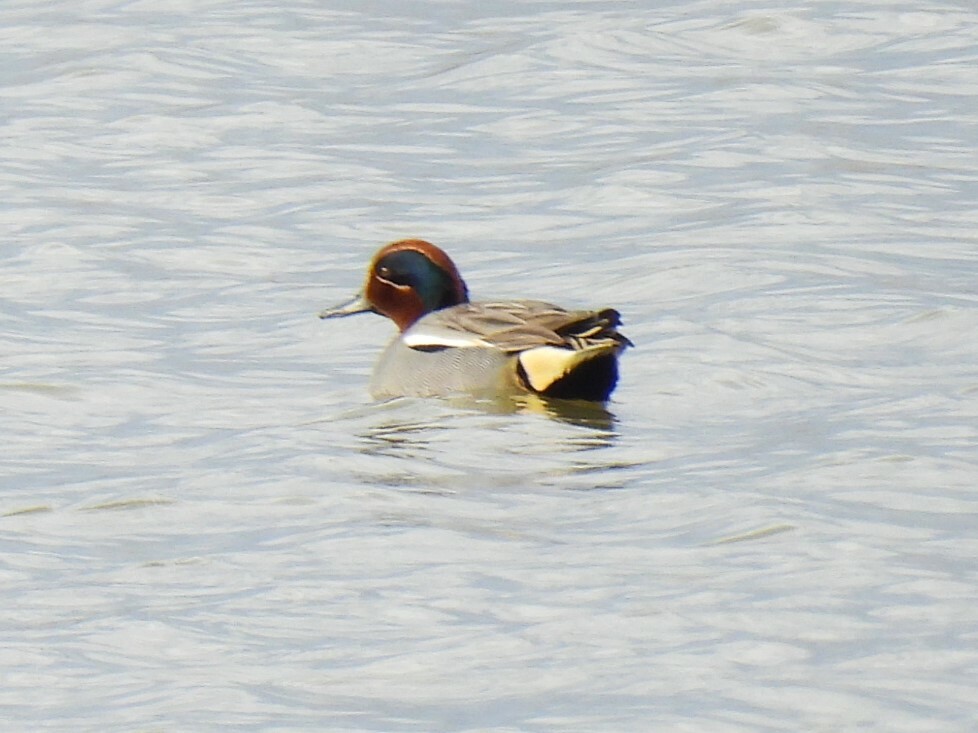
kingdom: Animalia
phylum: Chordata
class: Aves
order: Anseriformes
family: Anatidae
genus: Anas
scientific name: Anas crecca
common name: Eurasian teal
